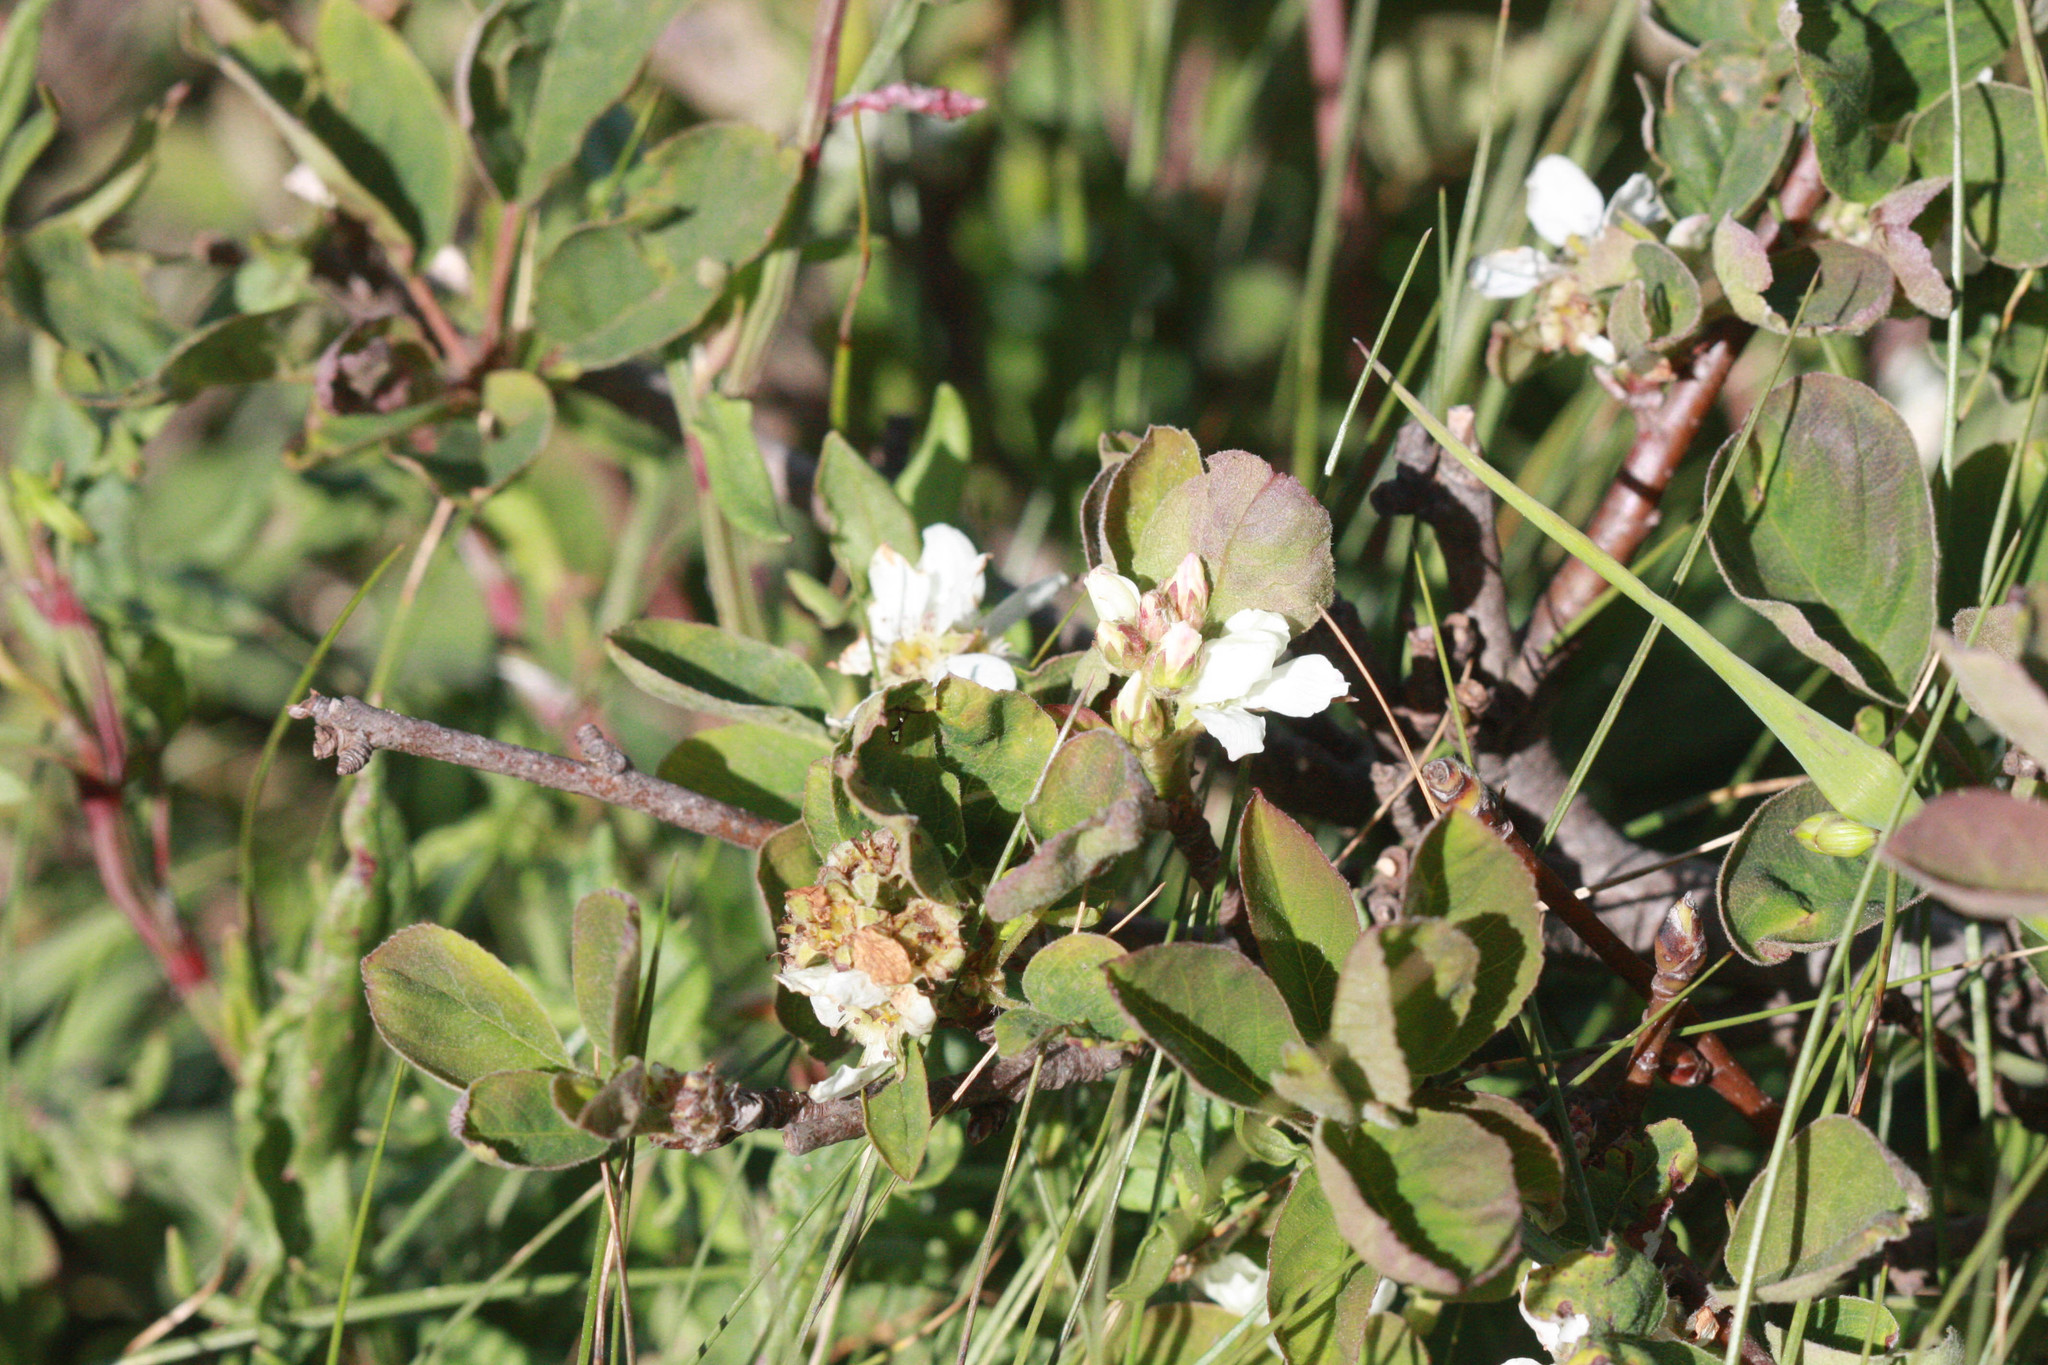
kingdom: Plantae
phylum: Tracheophyta
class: Magnoliopsida
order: Rosales
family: Rosaceae
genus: Amelanchier
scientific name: Amelanchier utahensis
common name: Utah serviceberry
